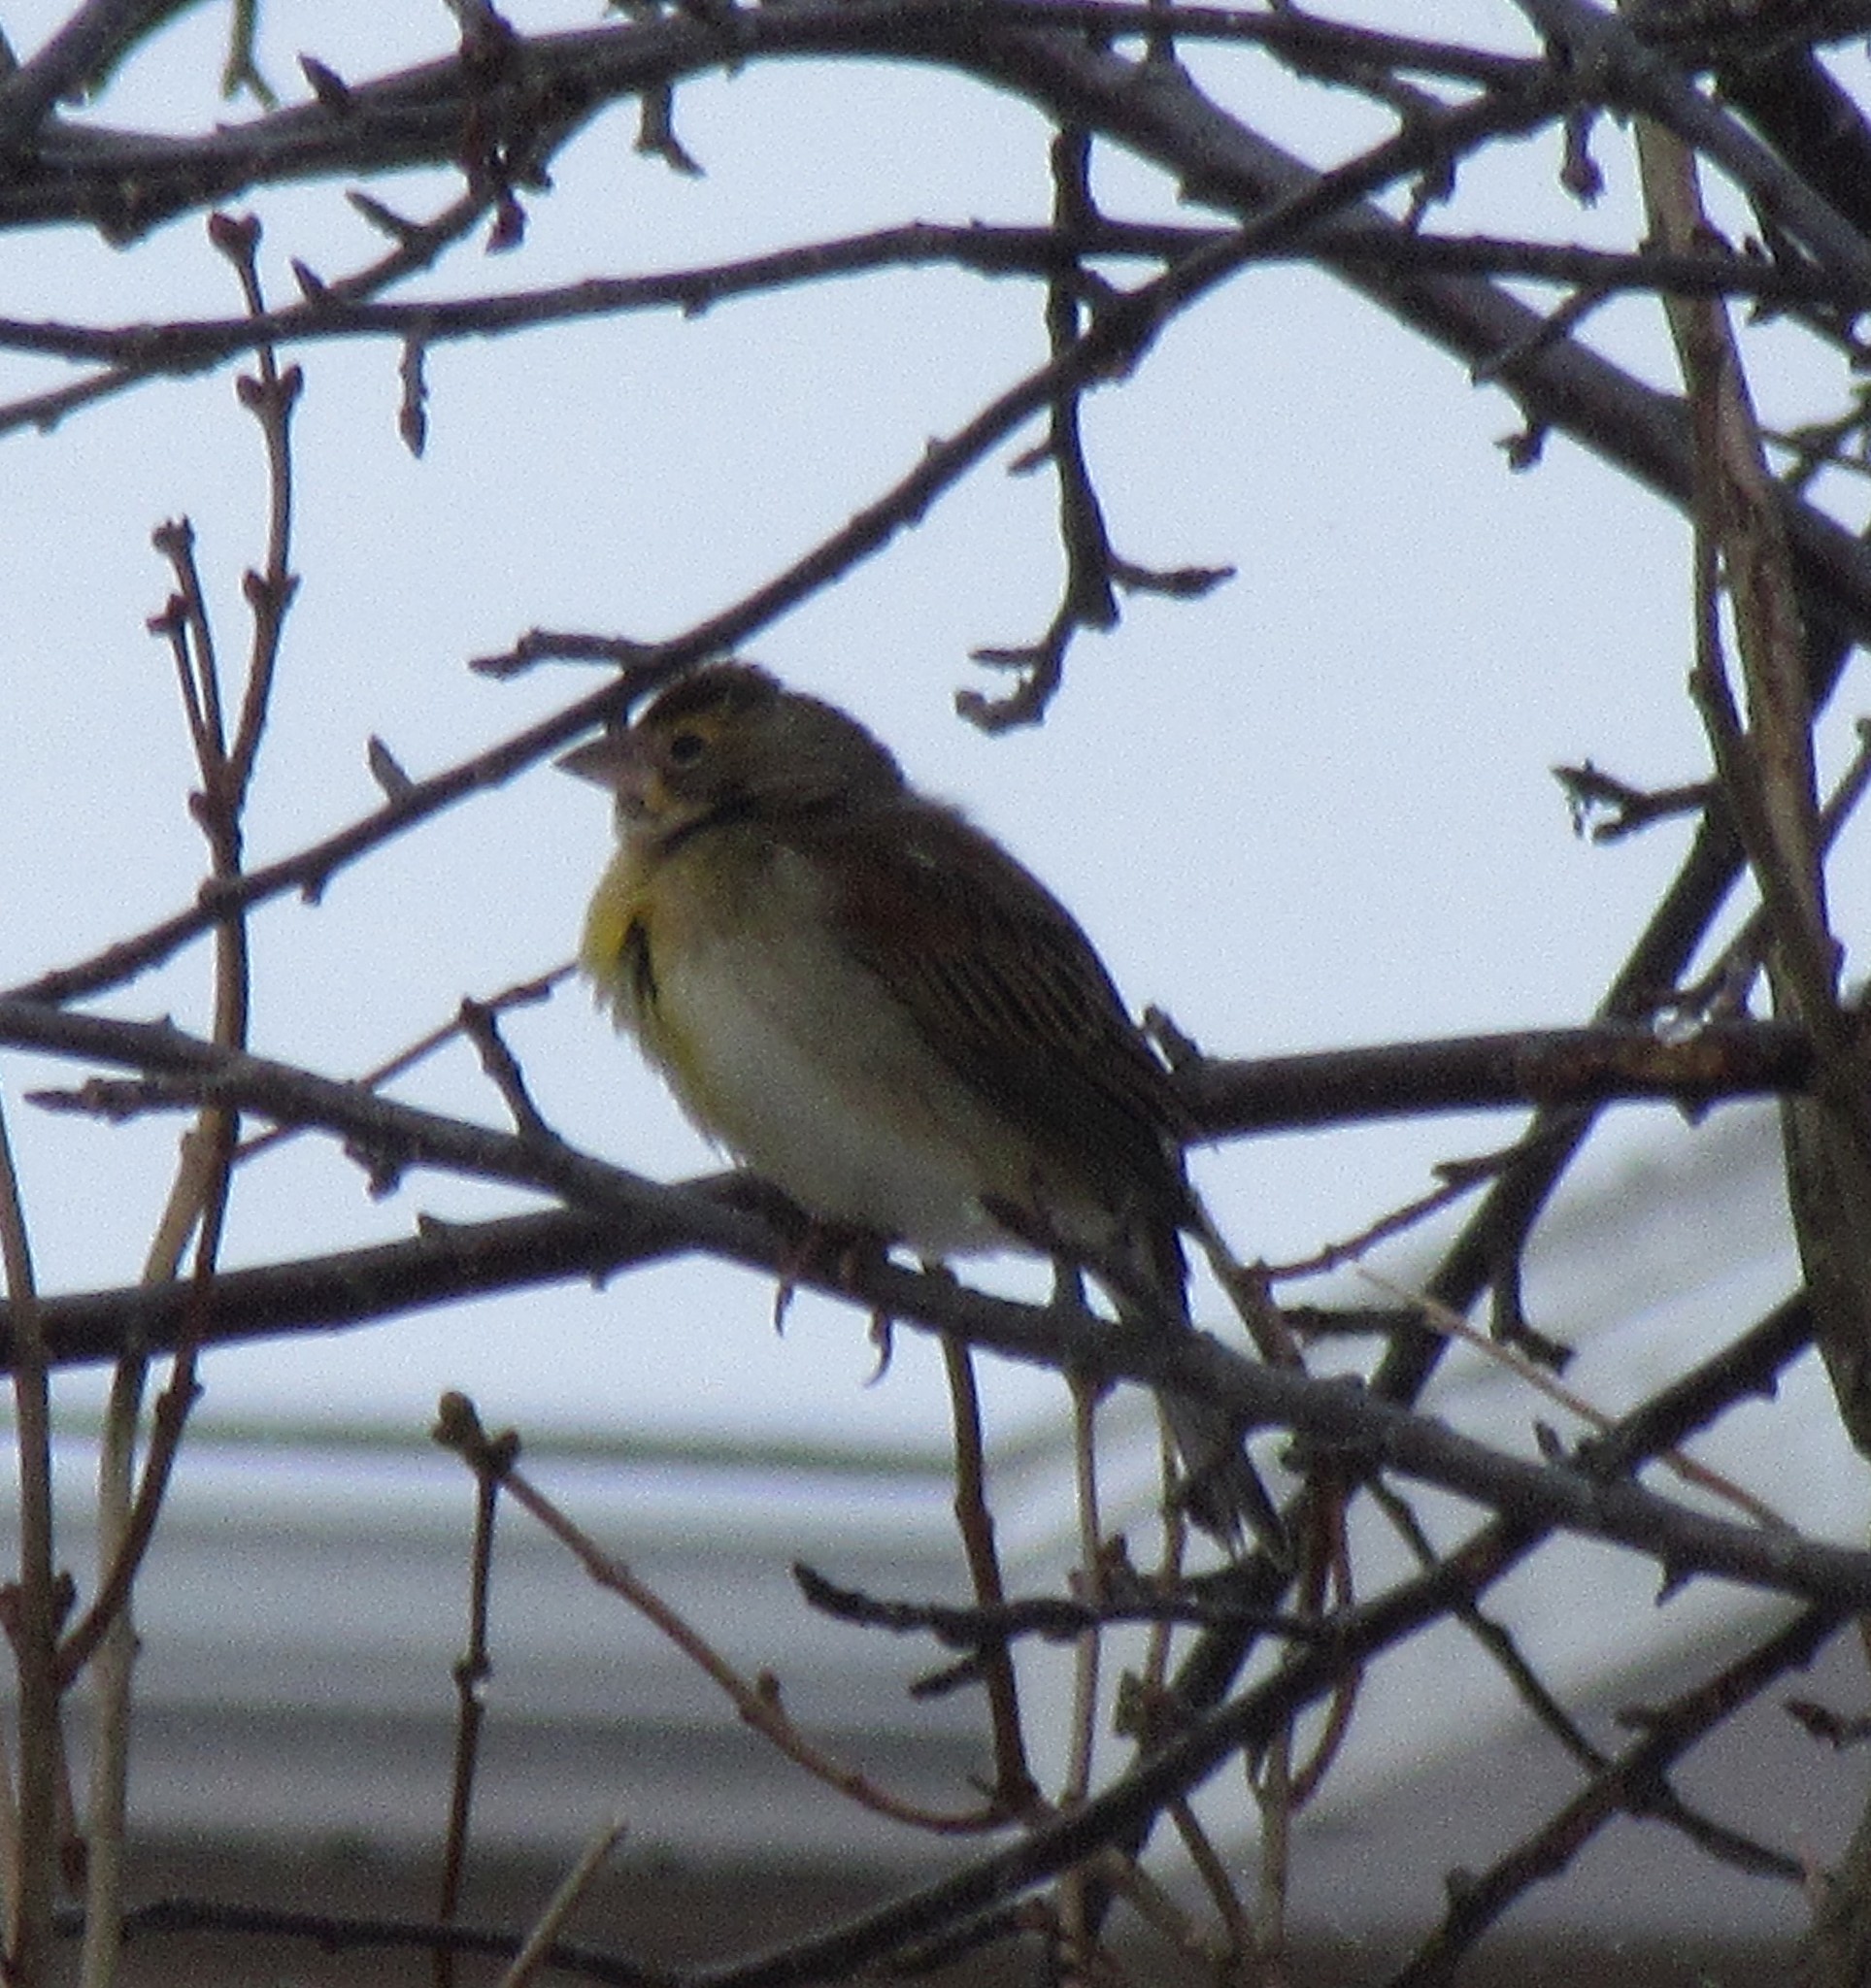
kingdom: Animalia
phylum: Chordata
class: Aves
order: Passeriformes
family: Cardinalidae
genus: Spiza
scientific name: Spiza americana
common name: Dickcissel
